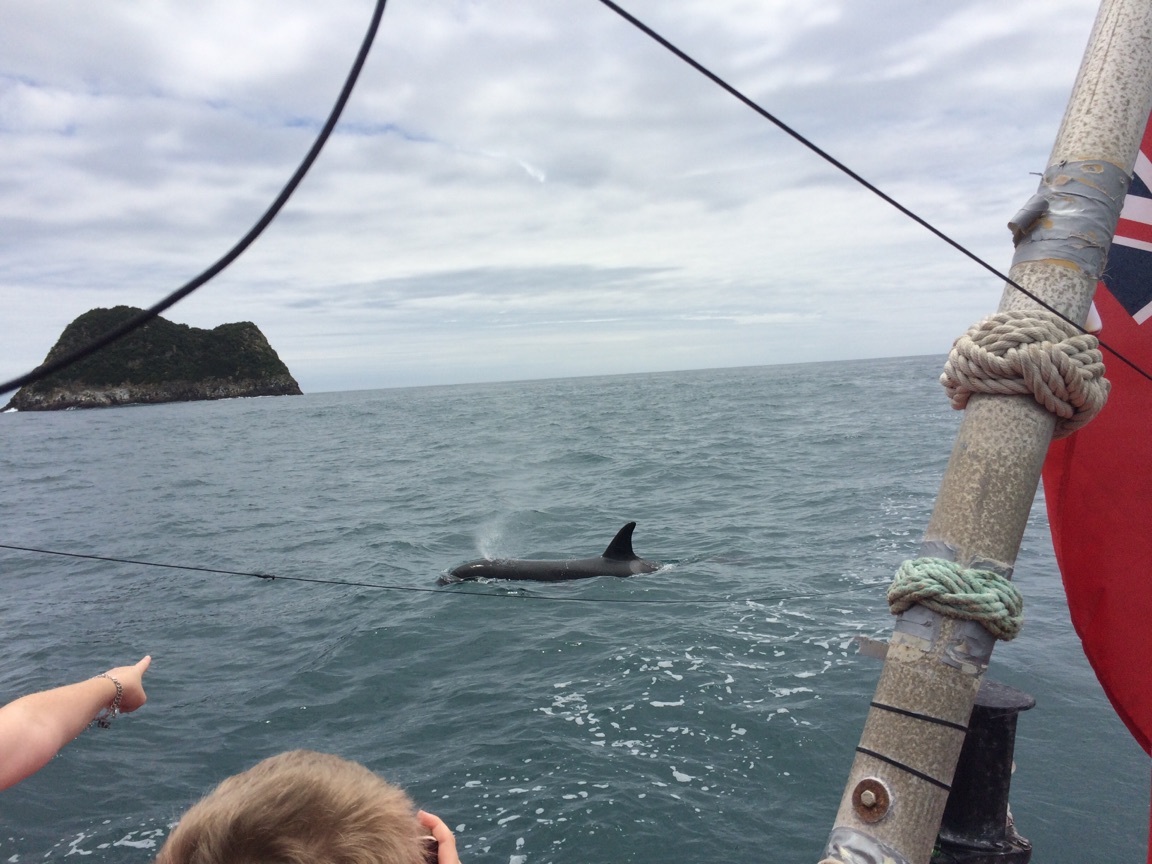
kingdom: Animalia
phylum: Chordata
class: Mammalia
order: Cetacea
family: Delphinidae
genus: Orcinus
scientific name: Orcinus orca
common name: Killer whale
